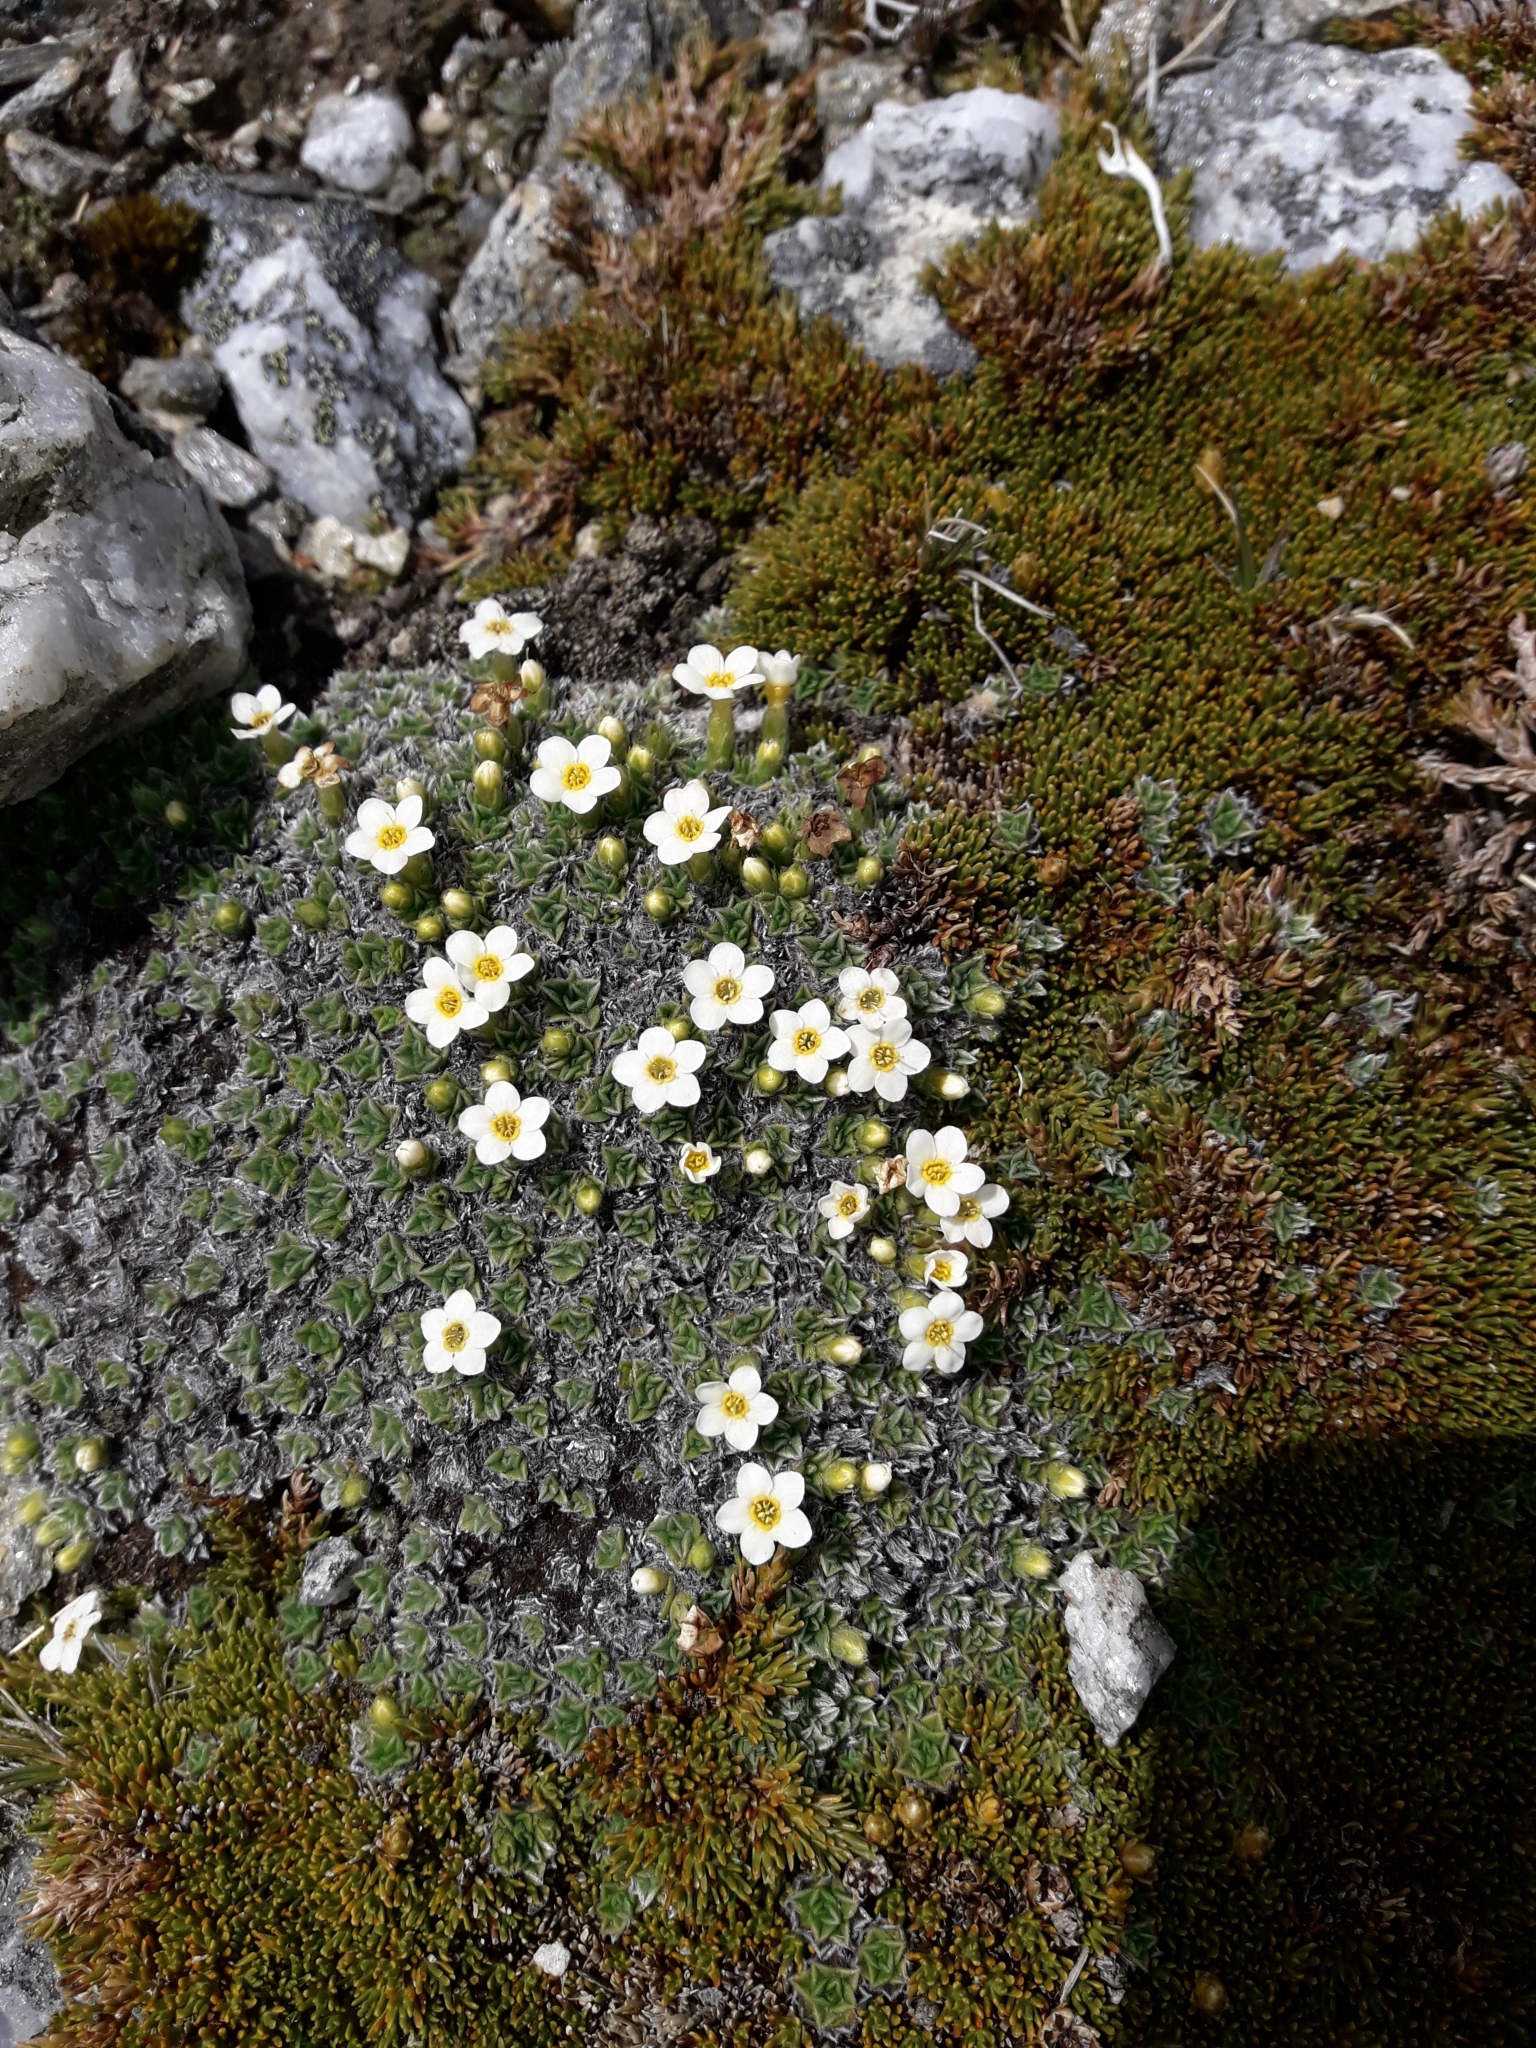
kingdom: Plantae
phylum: Tracheophyta
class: Magnoliopsida
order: Boraginales
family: Boraginaceae
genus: Myosotis
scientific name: Myosotis pulvinaris
